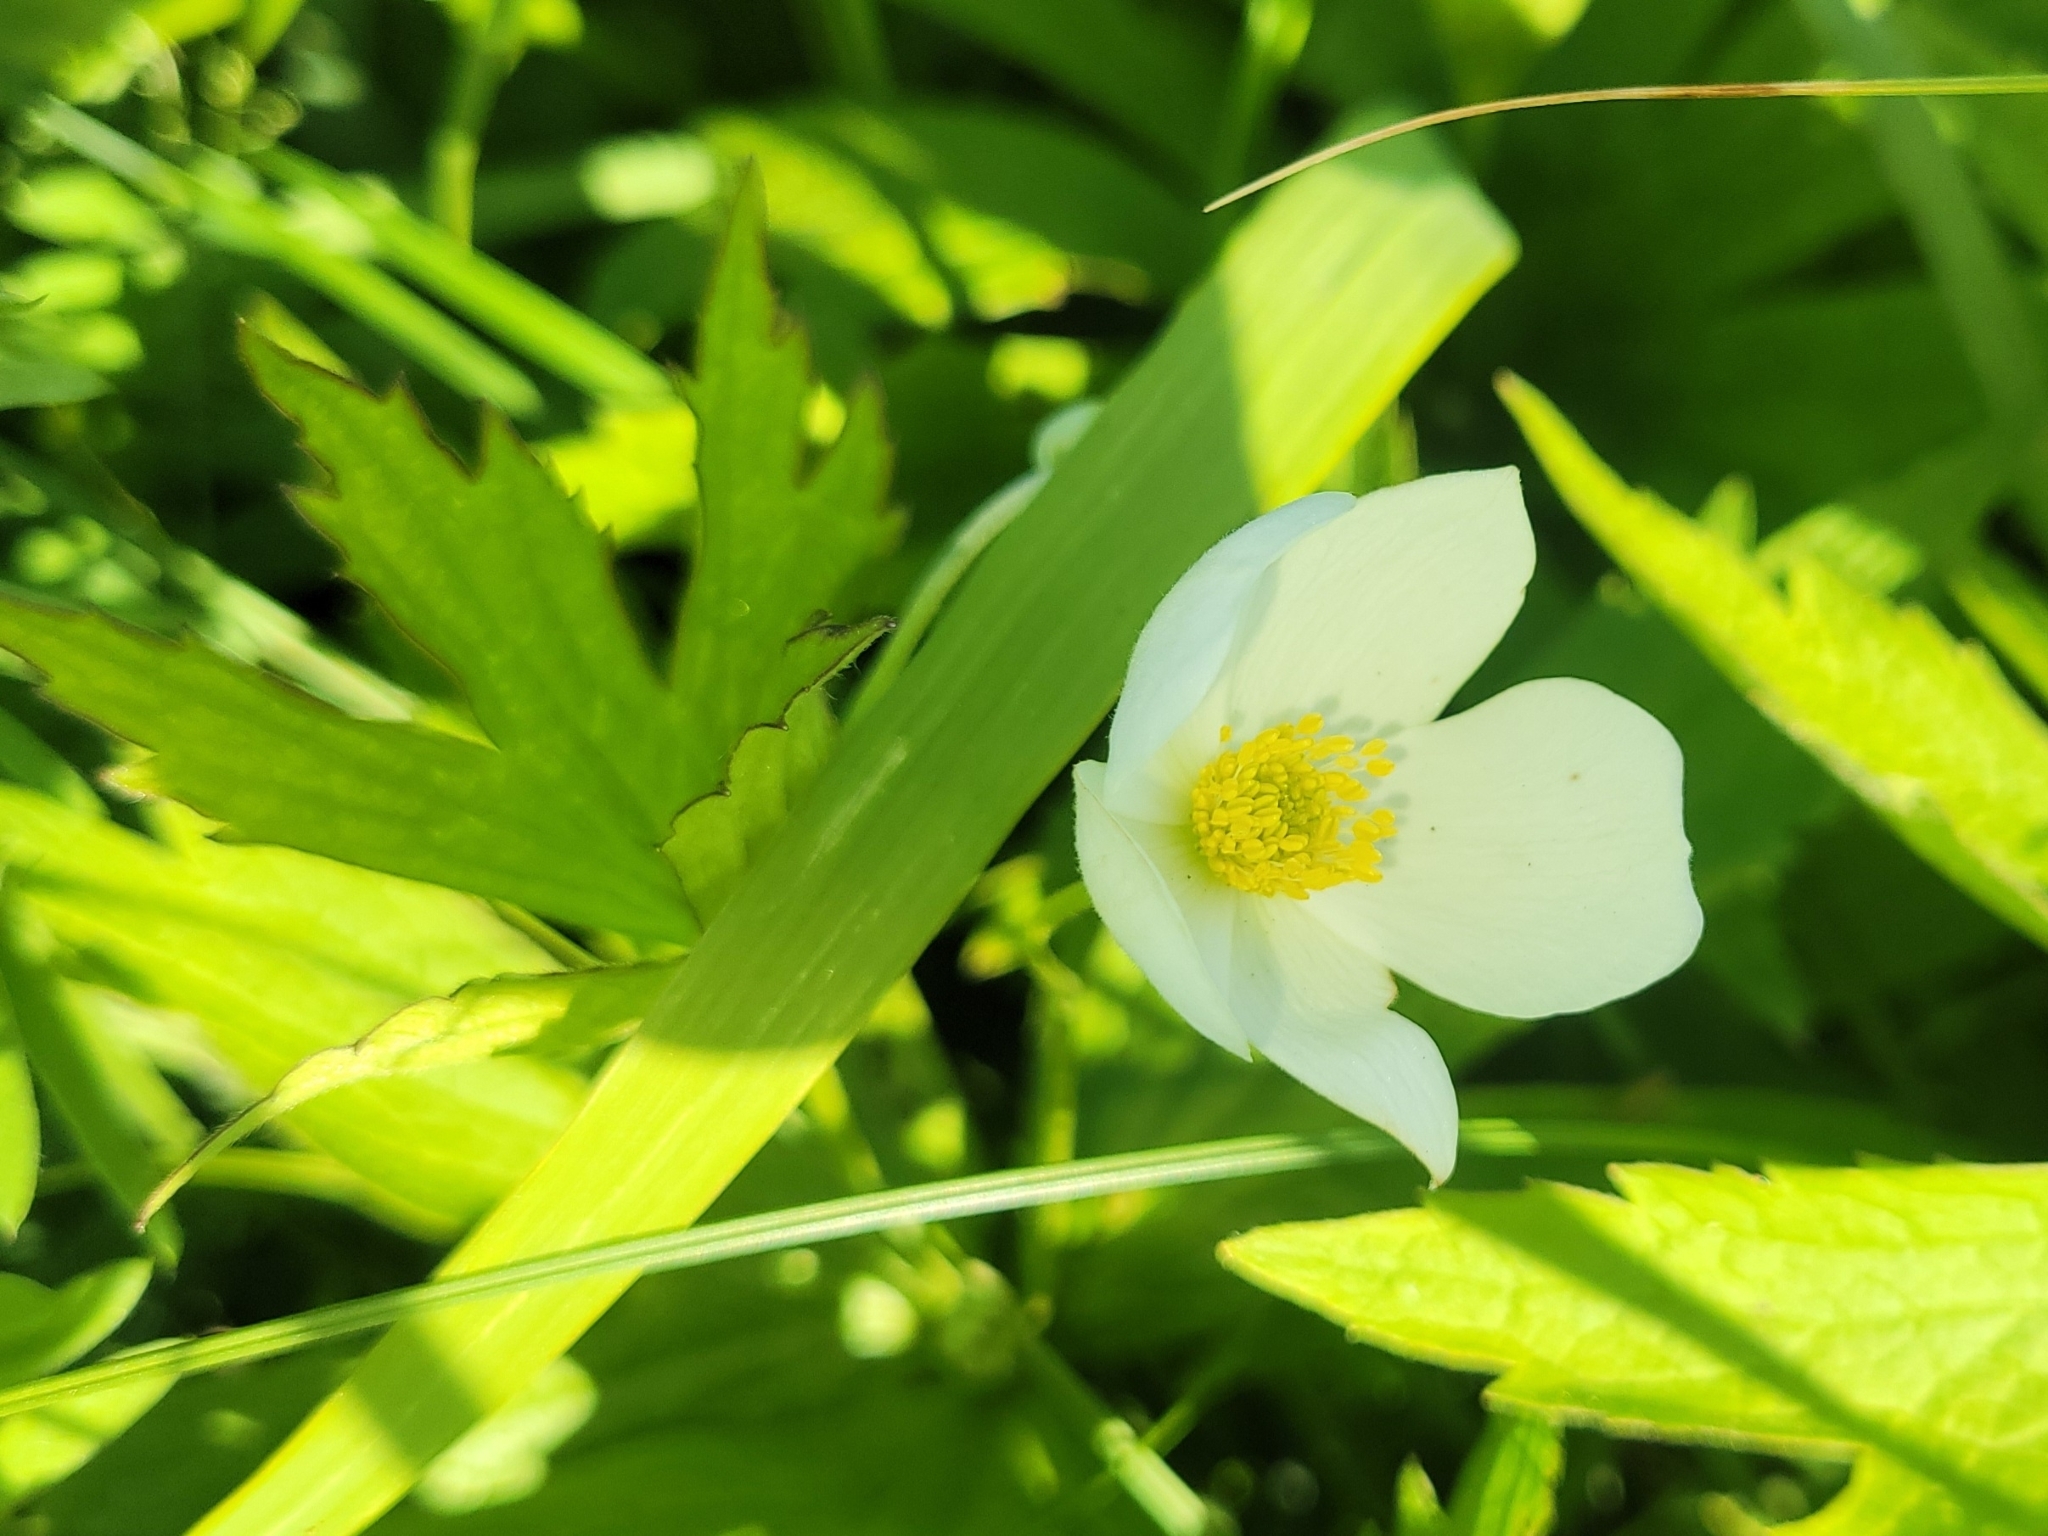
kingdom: Plantae
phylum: Tracheophyta
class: Magnoliopsida
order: Ranunculales
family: Ranunculaceae
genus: Anemonastrum
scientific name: Anemonastrum canadense
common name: Canada anemone
